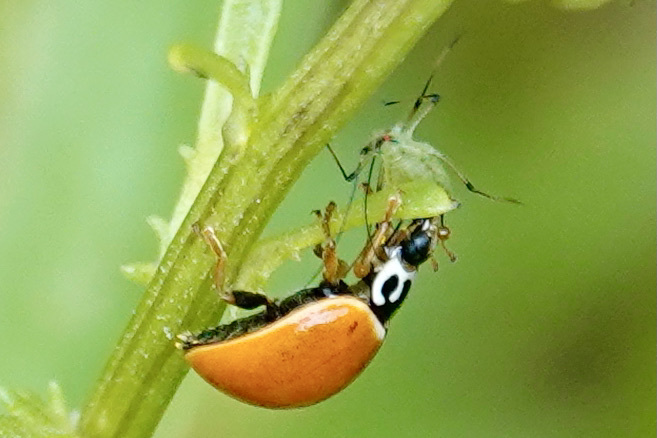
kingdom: Animalia
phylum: Arthropoda
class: Insecta
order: Coleoptera
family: Coccinellidae
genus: Cycloneda
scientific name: Cycloneda munda
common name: Polished lady beetle
